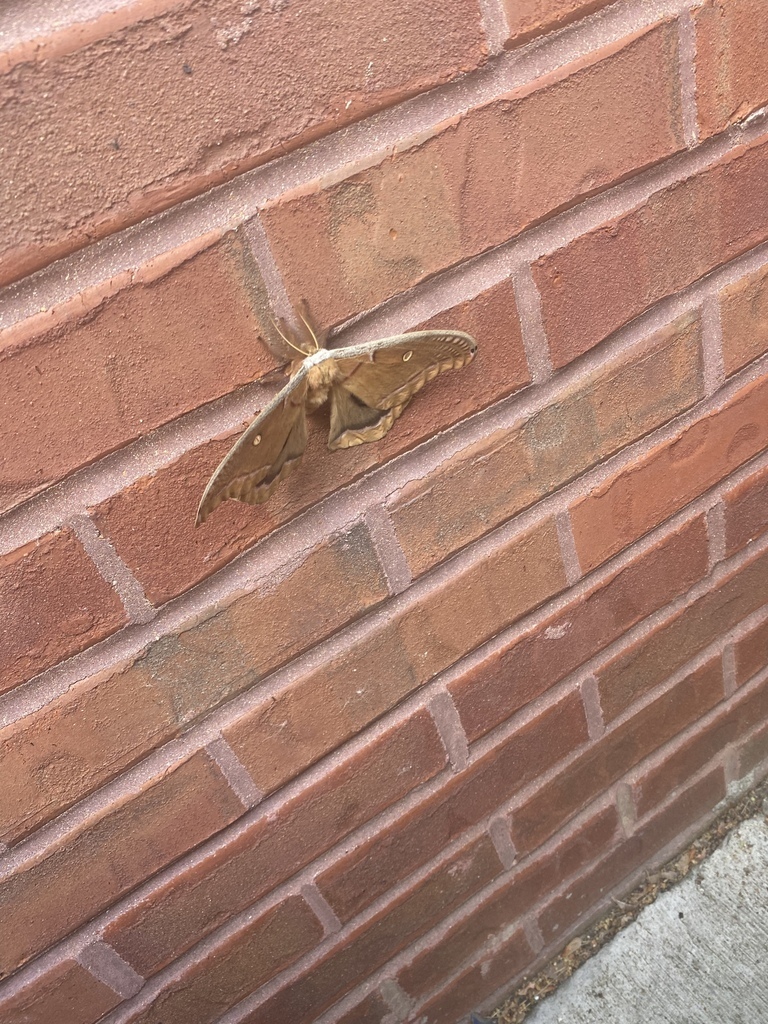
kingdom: Animalia
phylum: Arthropoda
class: Insecta
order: Lepidoptera
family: Saturniidae
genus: Antheraea
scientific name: Antheraea polyphemus
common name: Polyphemus moth
